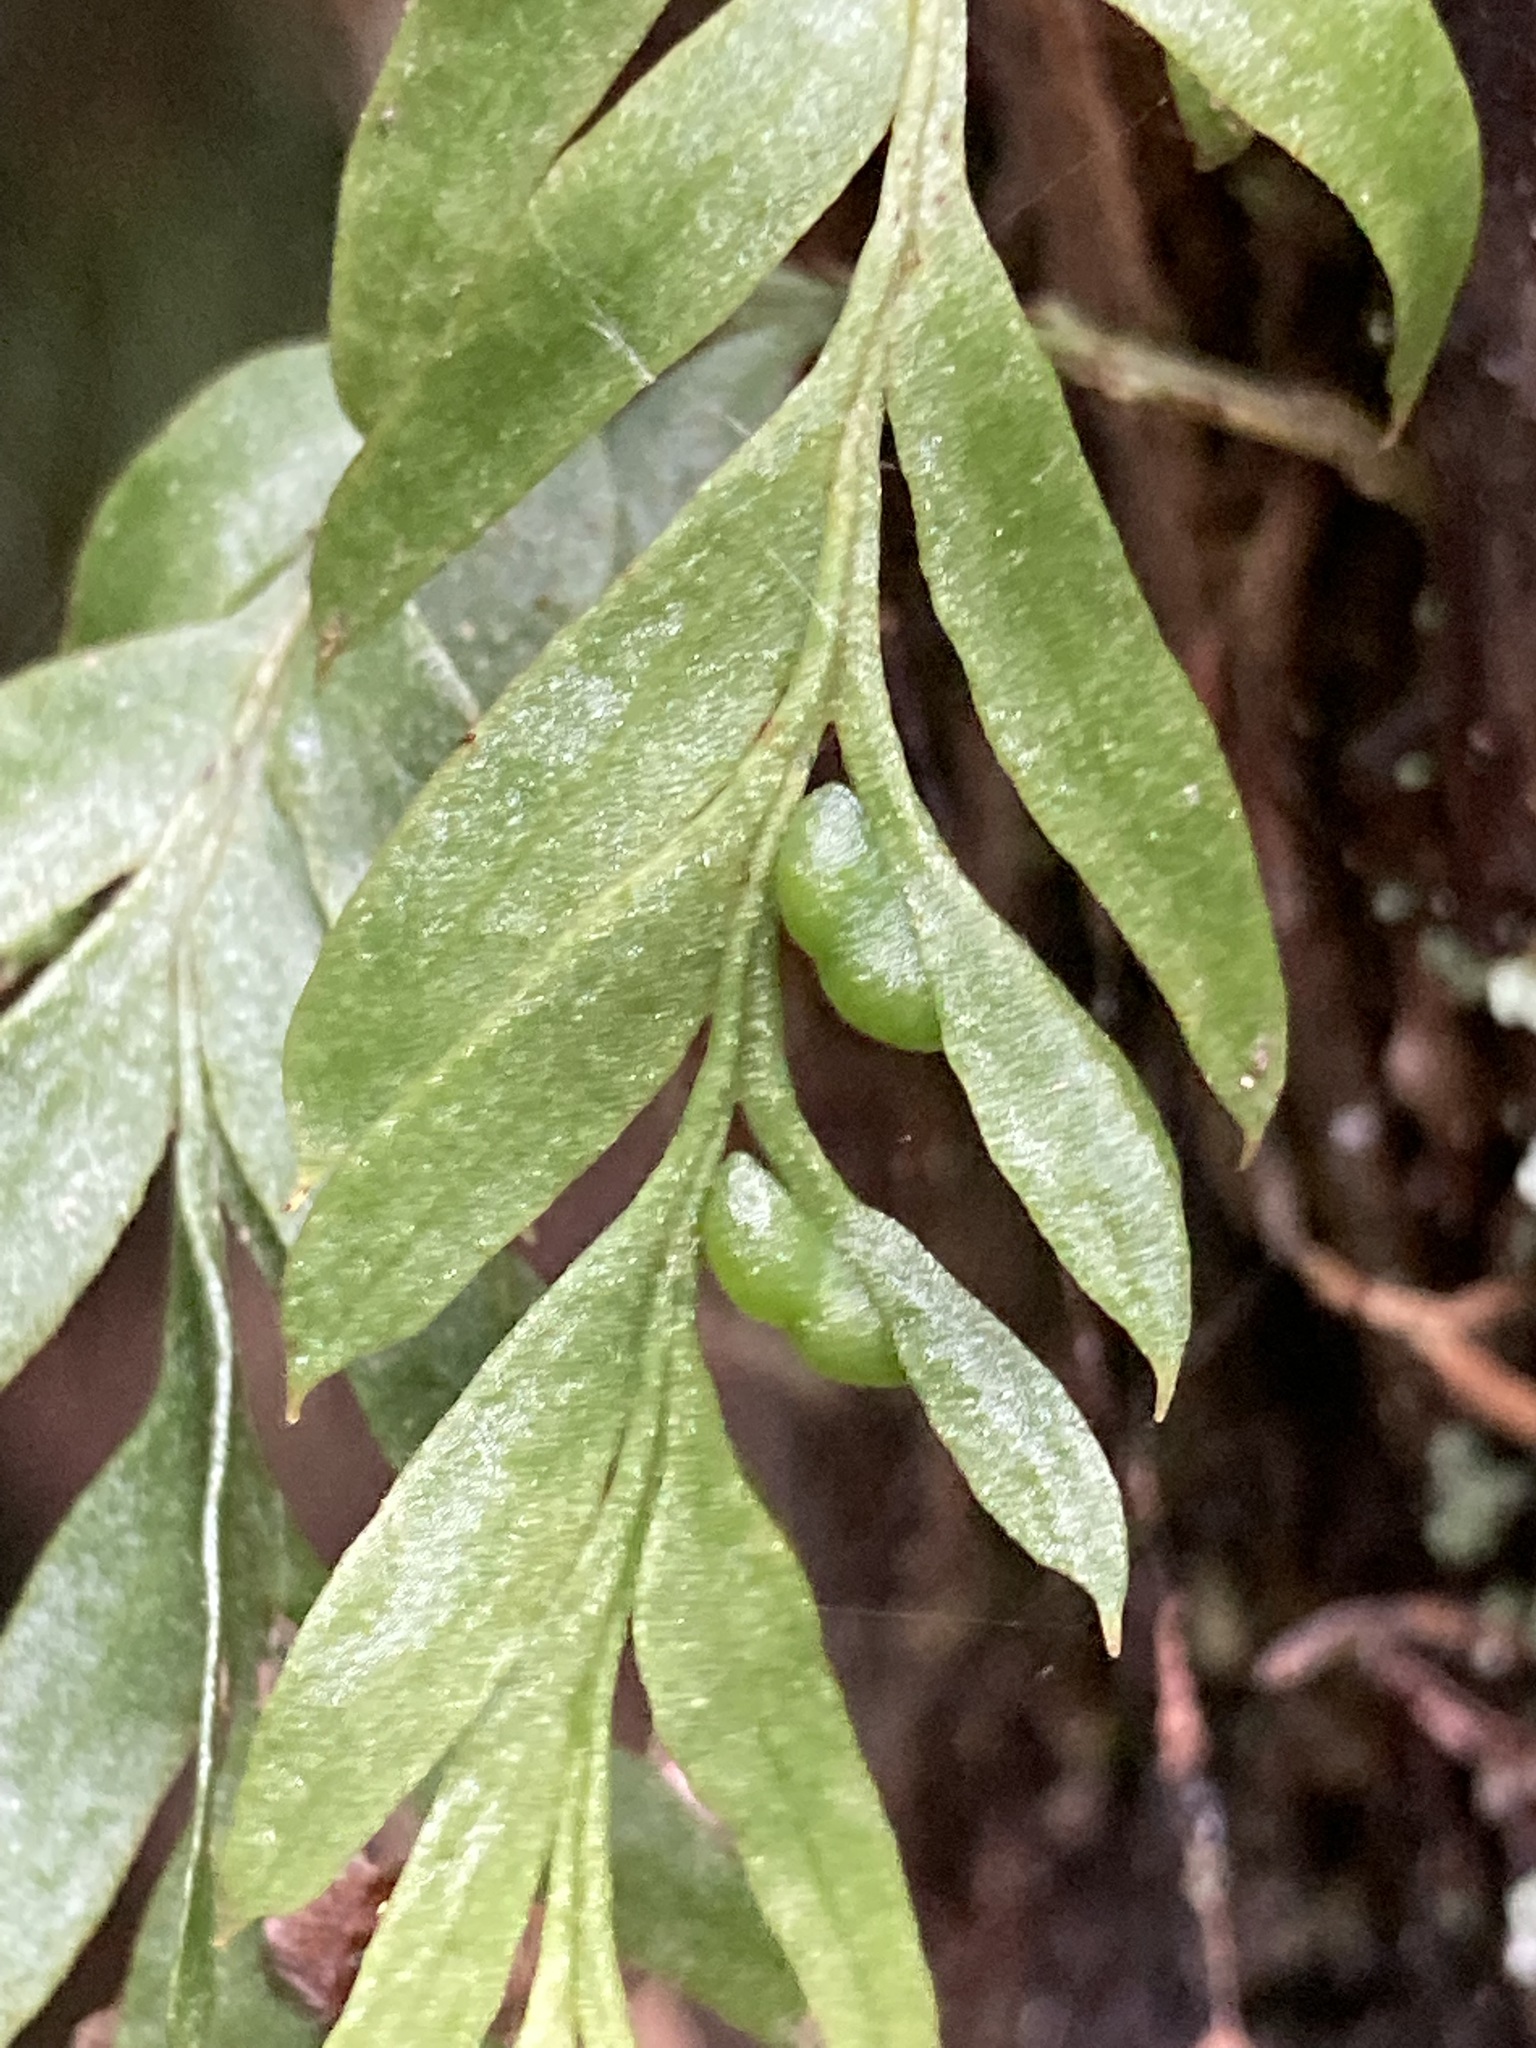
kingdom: Plantae
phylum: Tracheophyta
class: Polypodiopsida
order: Psilotales
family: Psilotaceae
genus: Tmesipteris
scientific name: Tmesipteris elongata
